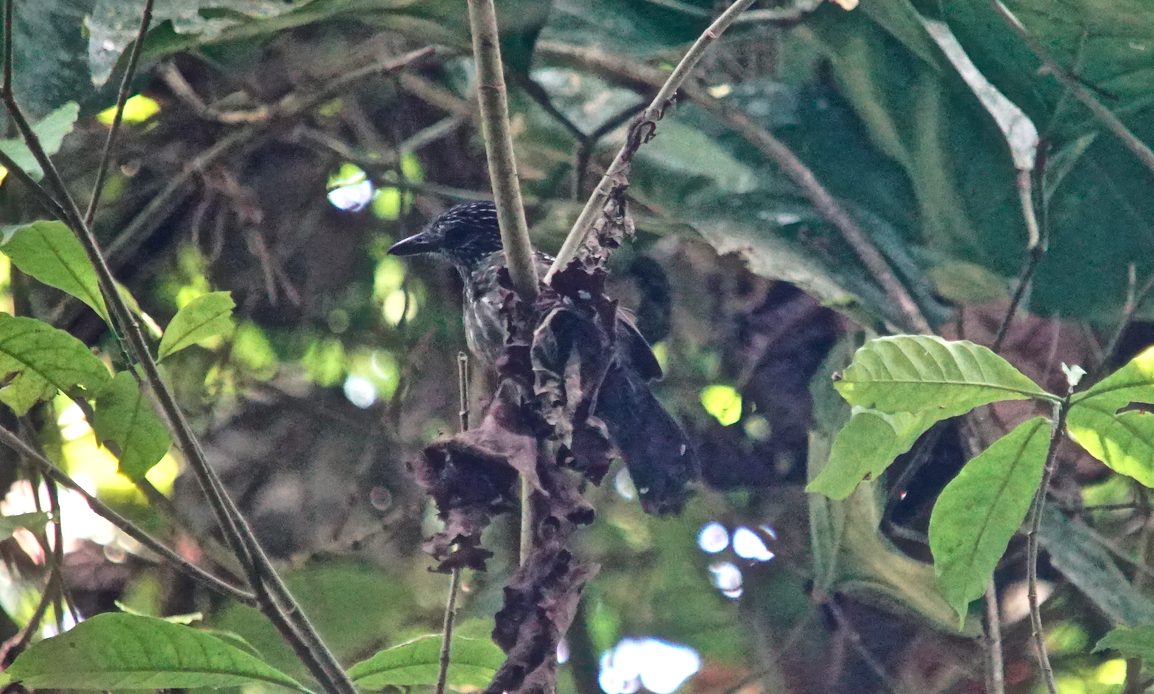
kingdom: Animalia
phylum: Chordata
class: Aves
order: Passeriformes
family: Thamnophilidae
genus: Thamnophilus
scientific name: Thamnophilus bridgesi
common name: Black-hooded antshrike
